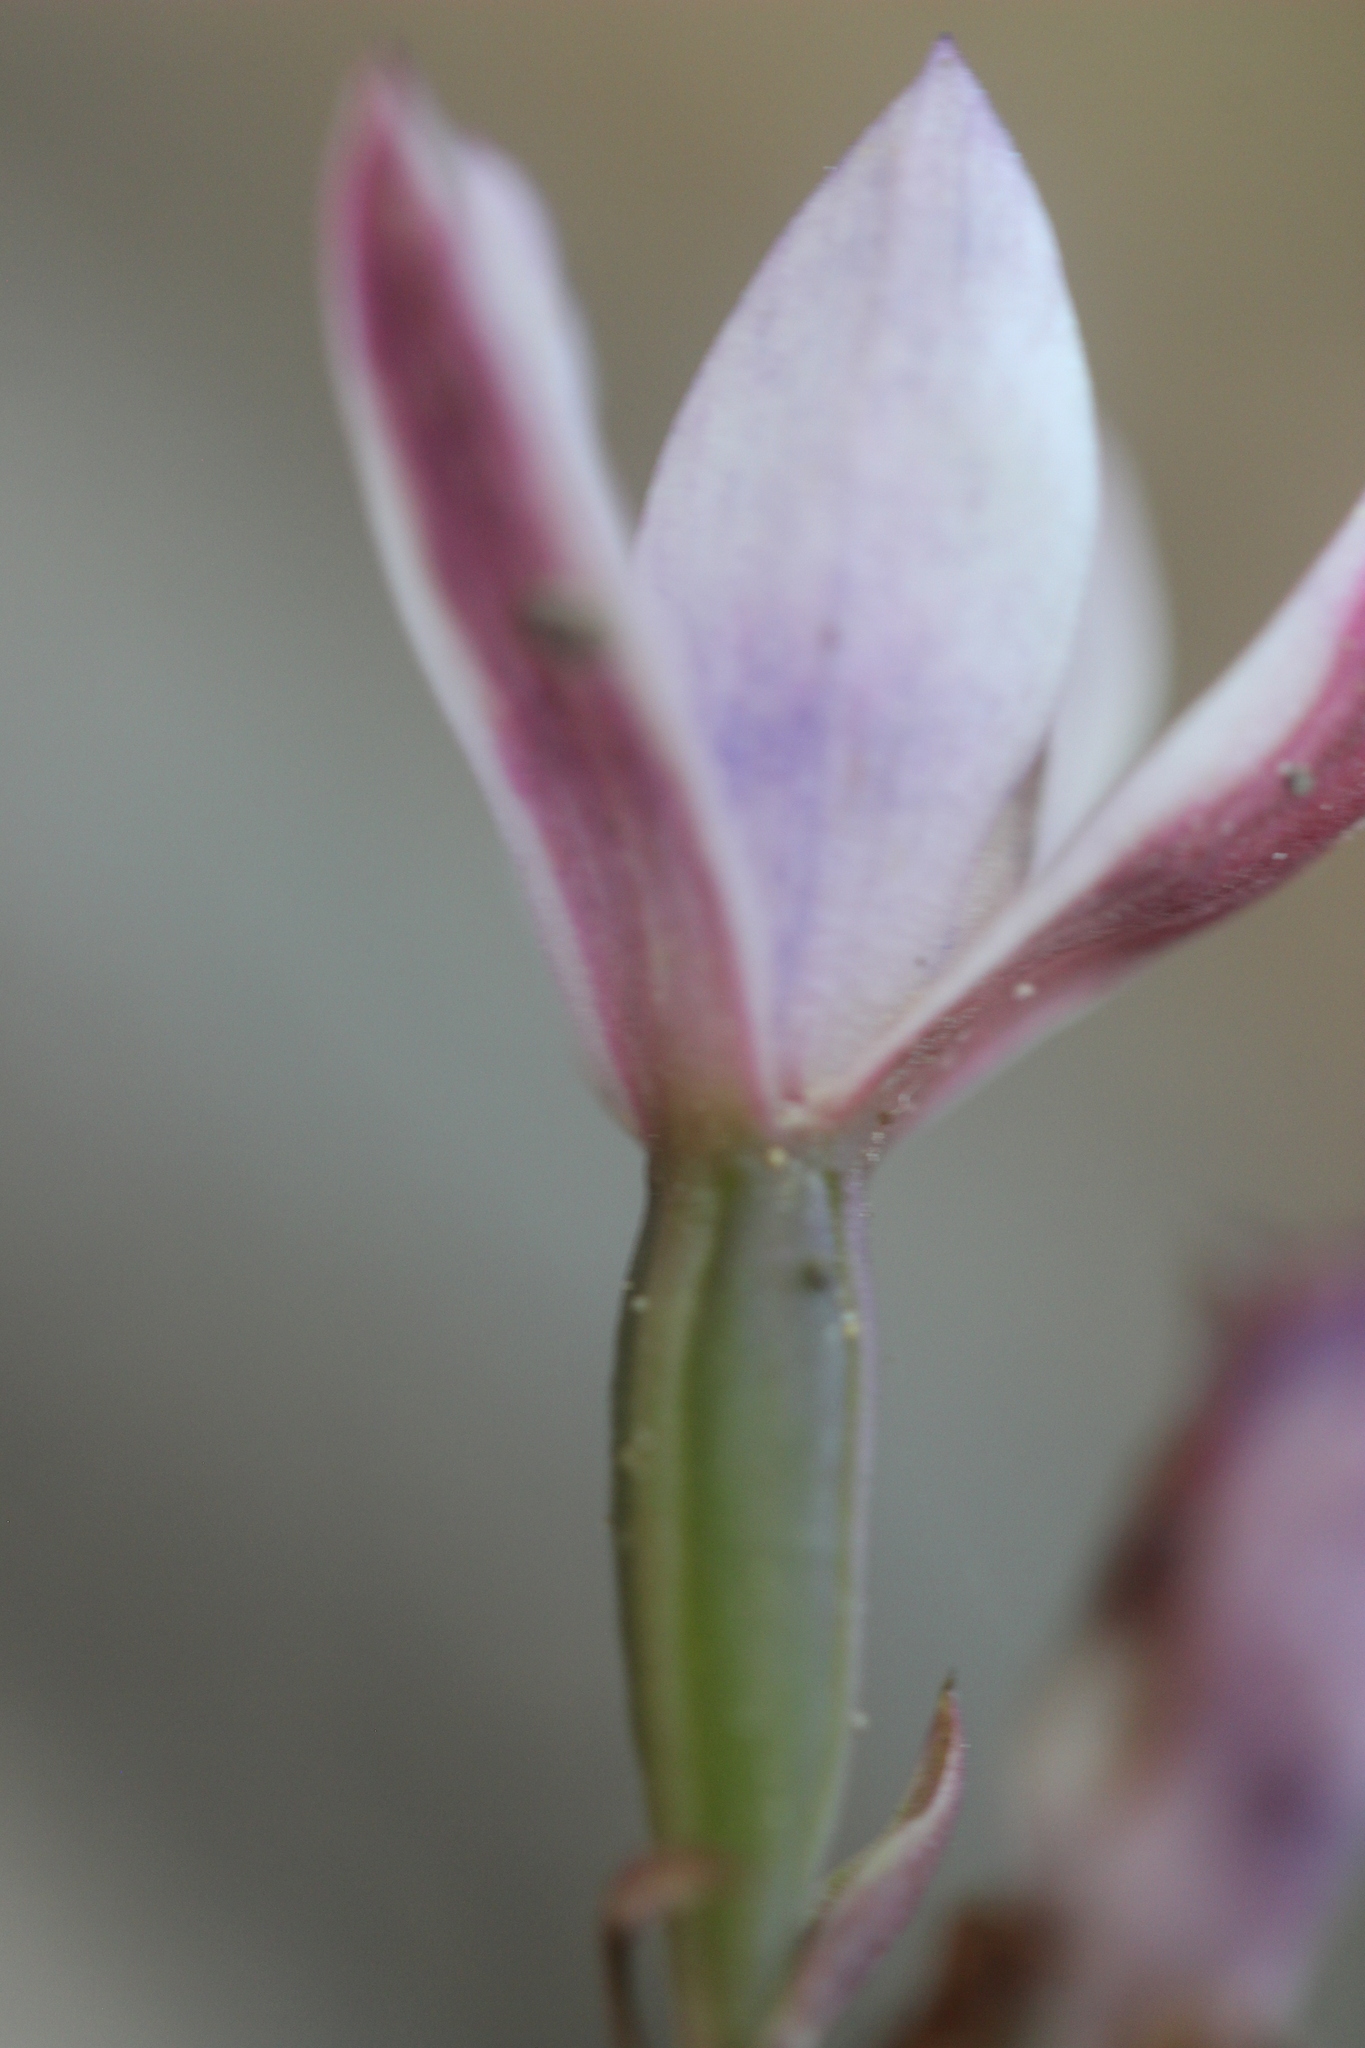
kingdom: Plantae
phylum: Tracheophyta
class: Liliopsida
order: Asparagales
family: Orchidaceae
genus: Thelymitra
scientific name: Thelymitra purpureofusca
